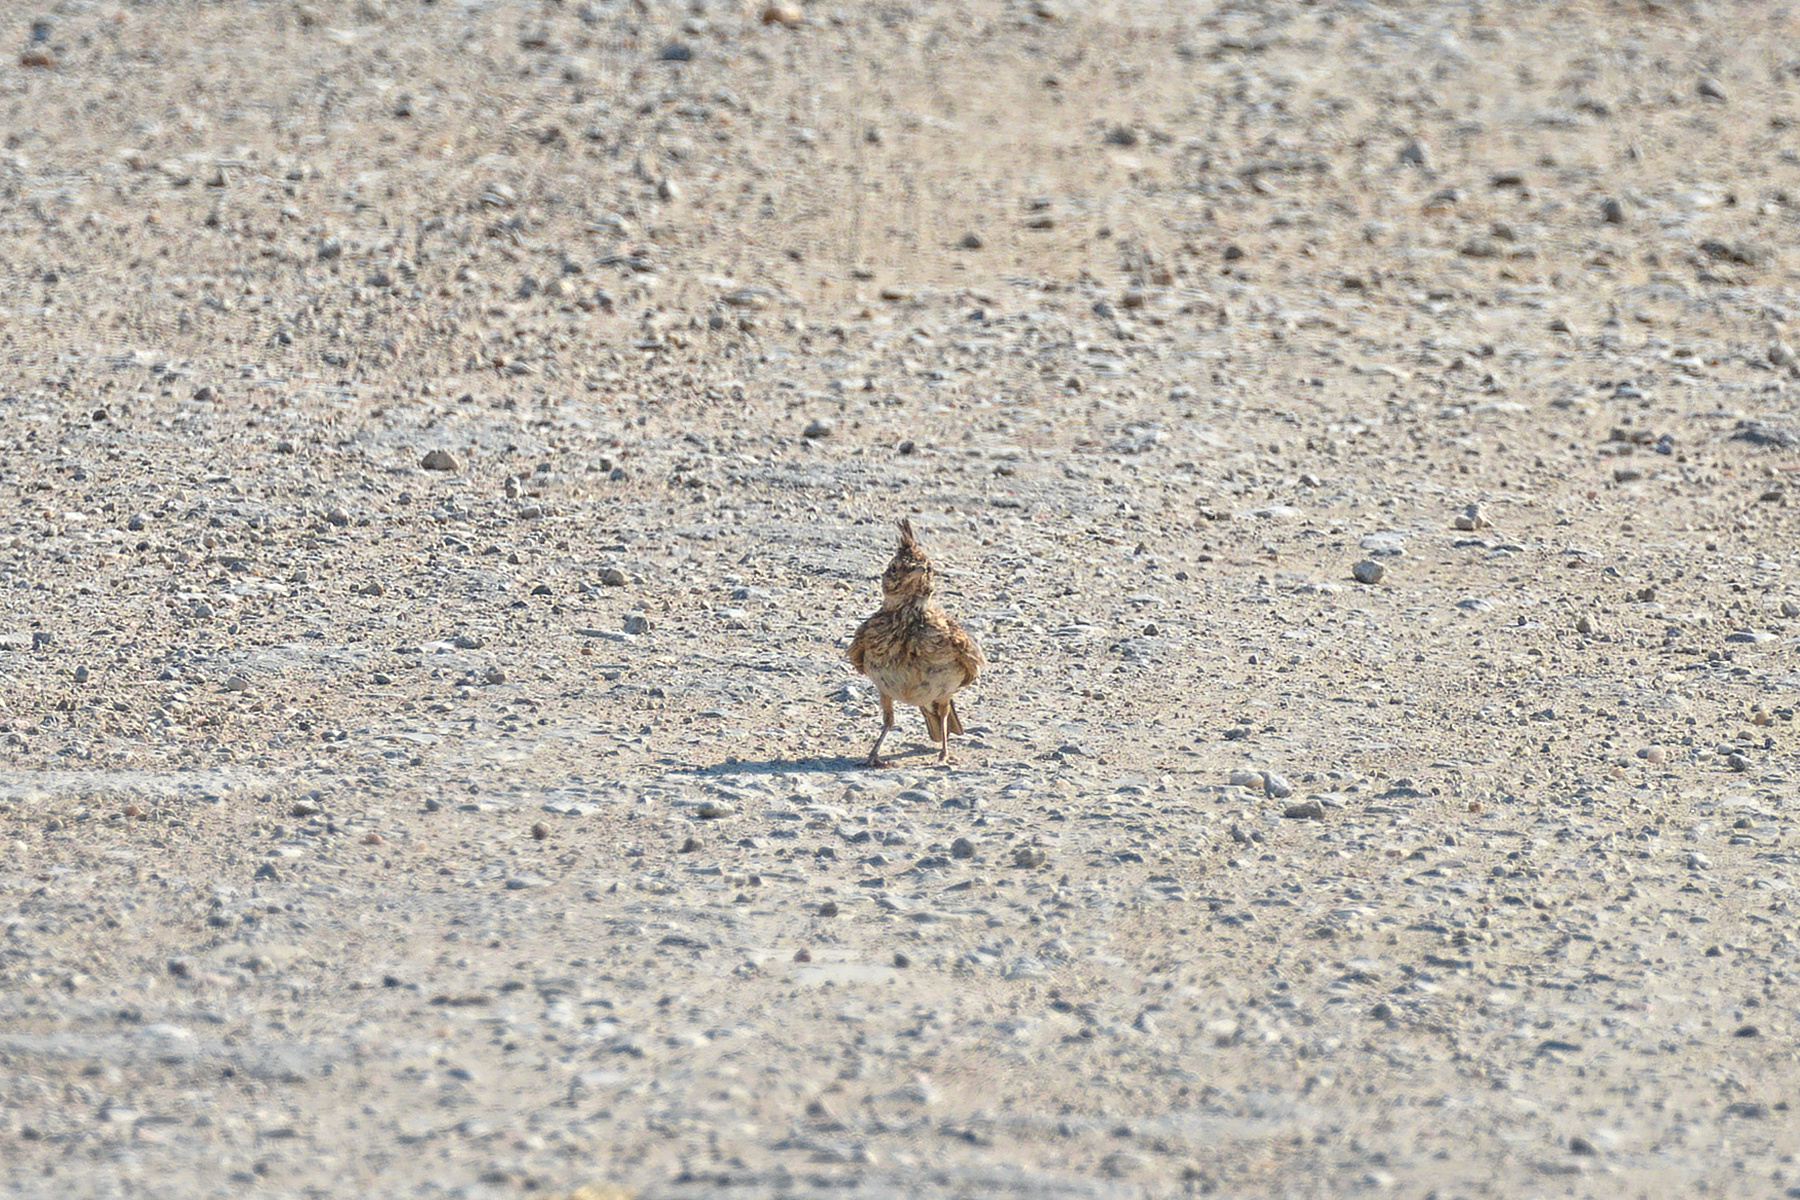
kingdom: Animalia
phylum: Chordata
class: Aves
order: Passeriformes
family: Alaudidae
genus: Galerida
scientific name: Galerida cristata
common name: Crested lark
